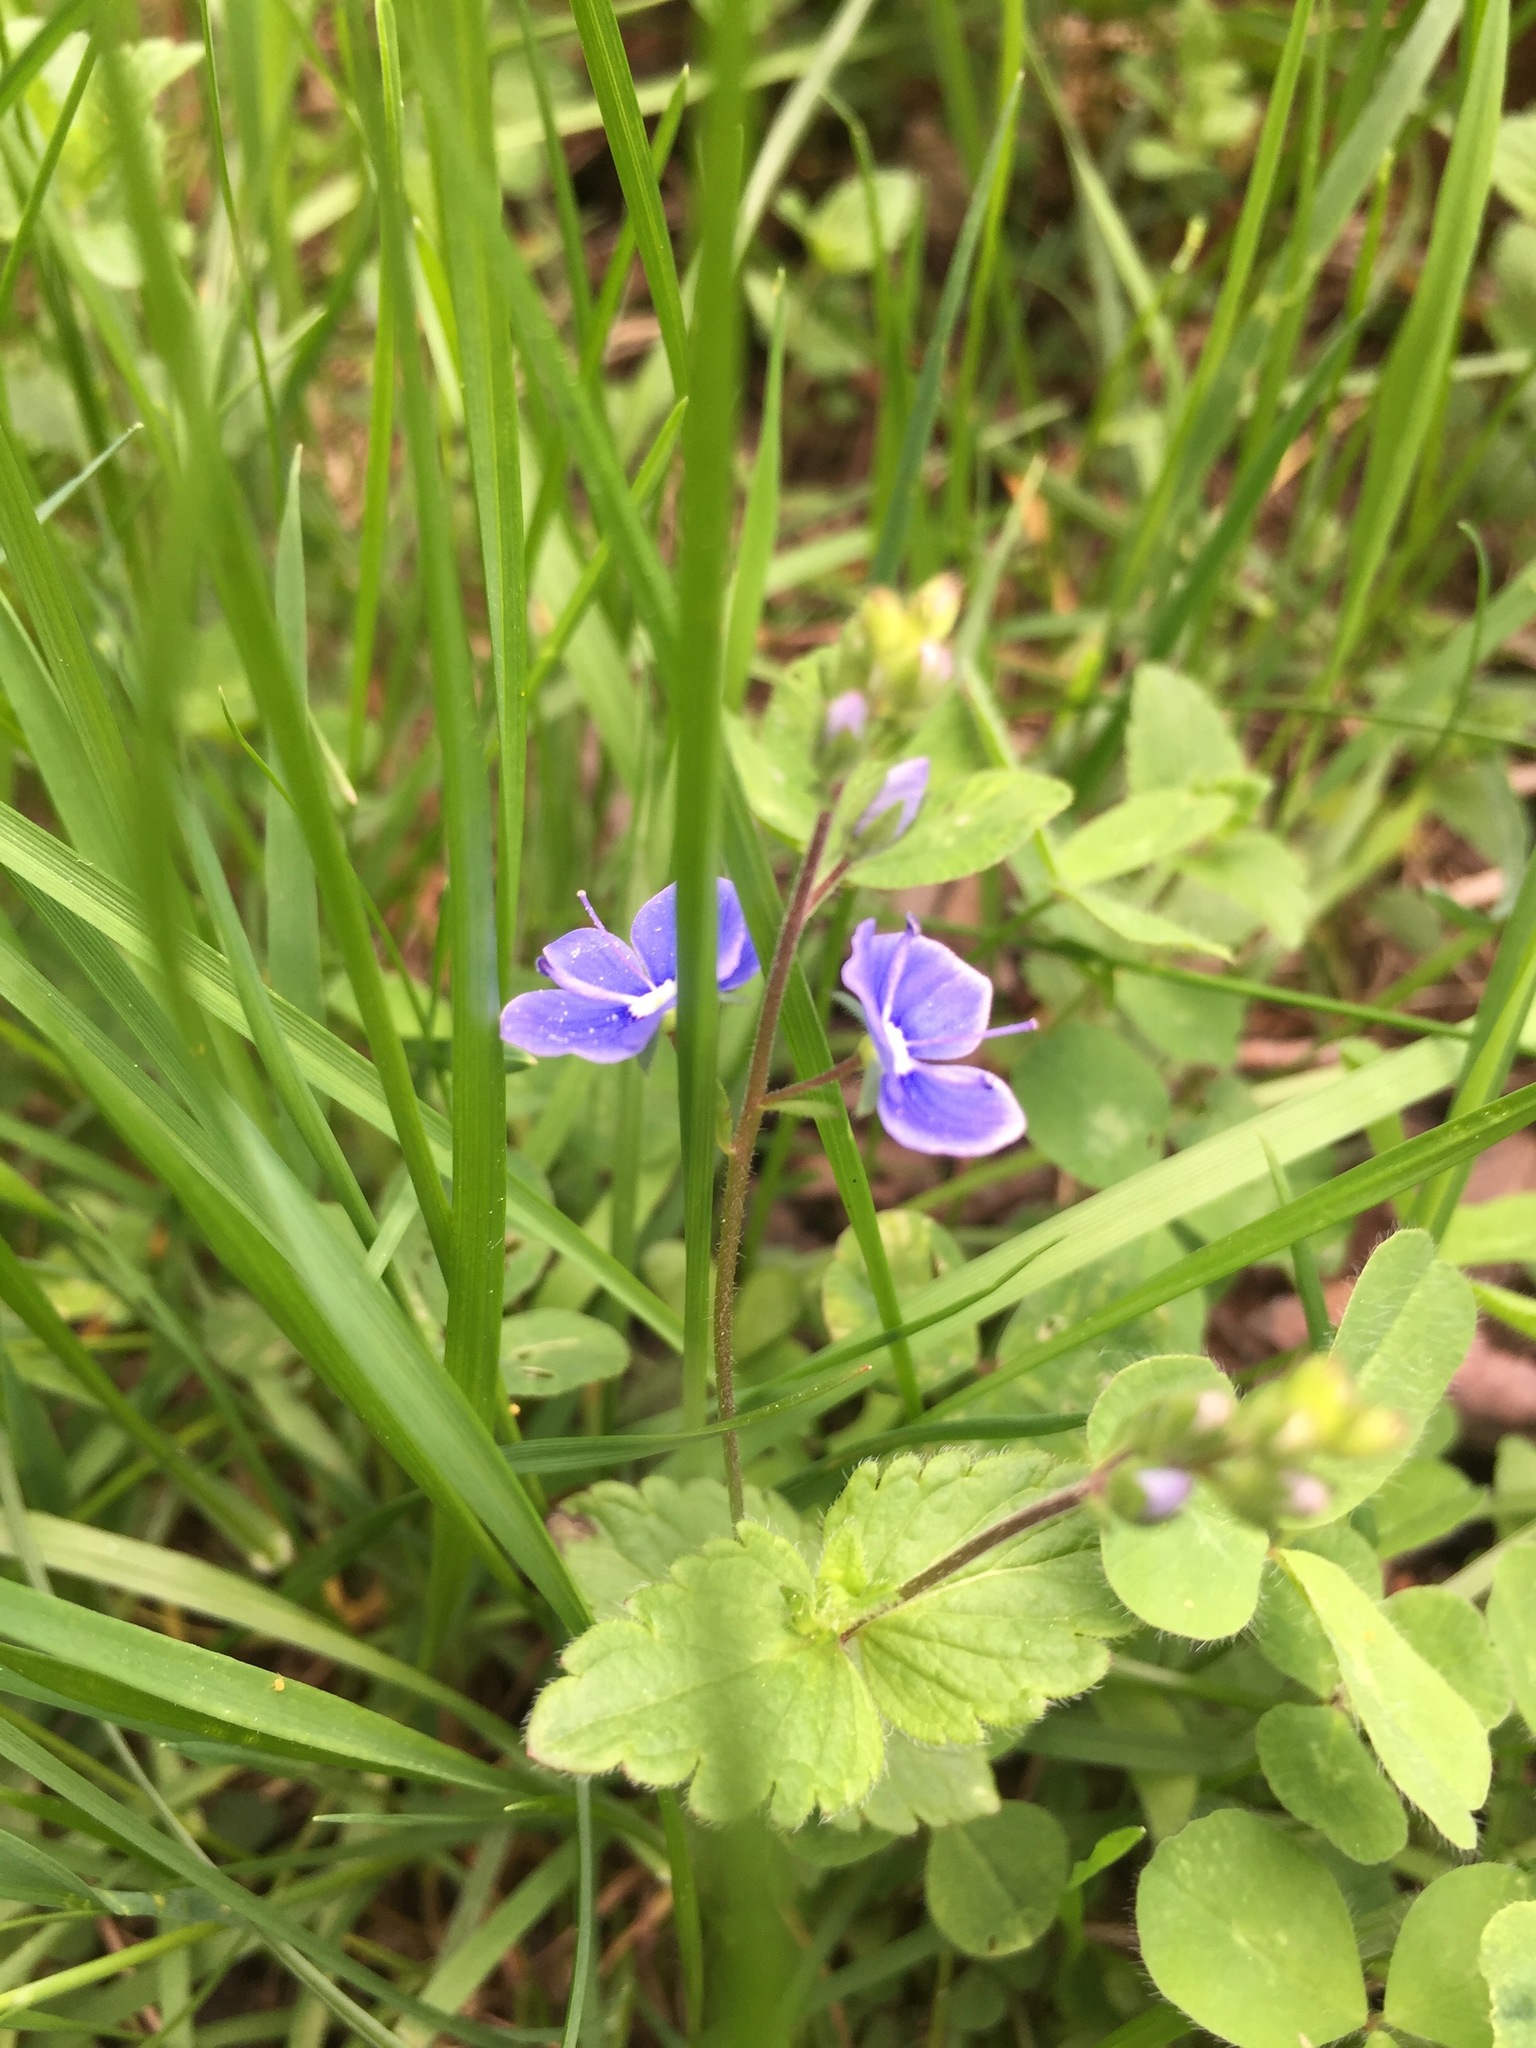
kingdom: Plantae
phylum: Tracheophyta
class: Magnoliopsida
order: Lamiales
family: Plantaginaceae
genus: Veronica
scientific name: Veronica chamaedrys
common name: Germander speedwell
